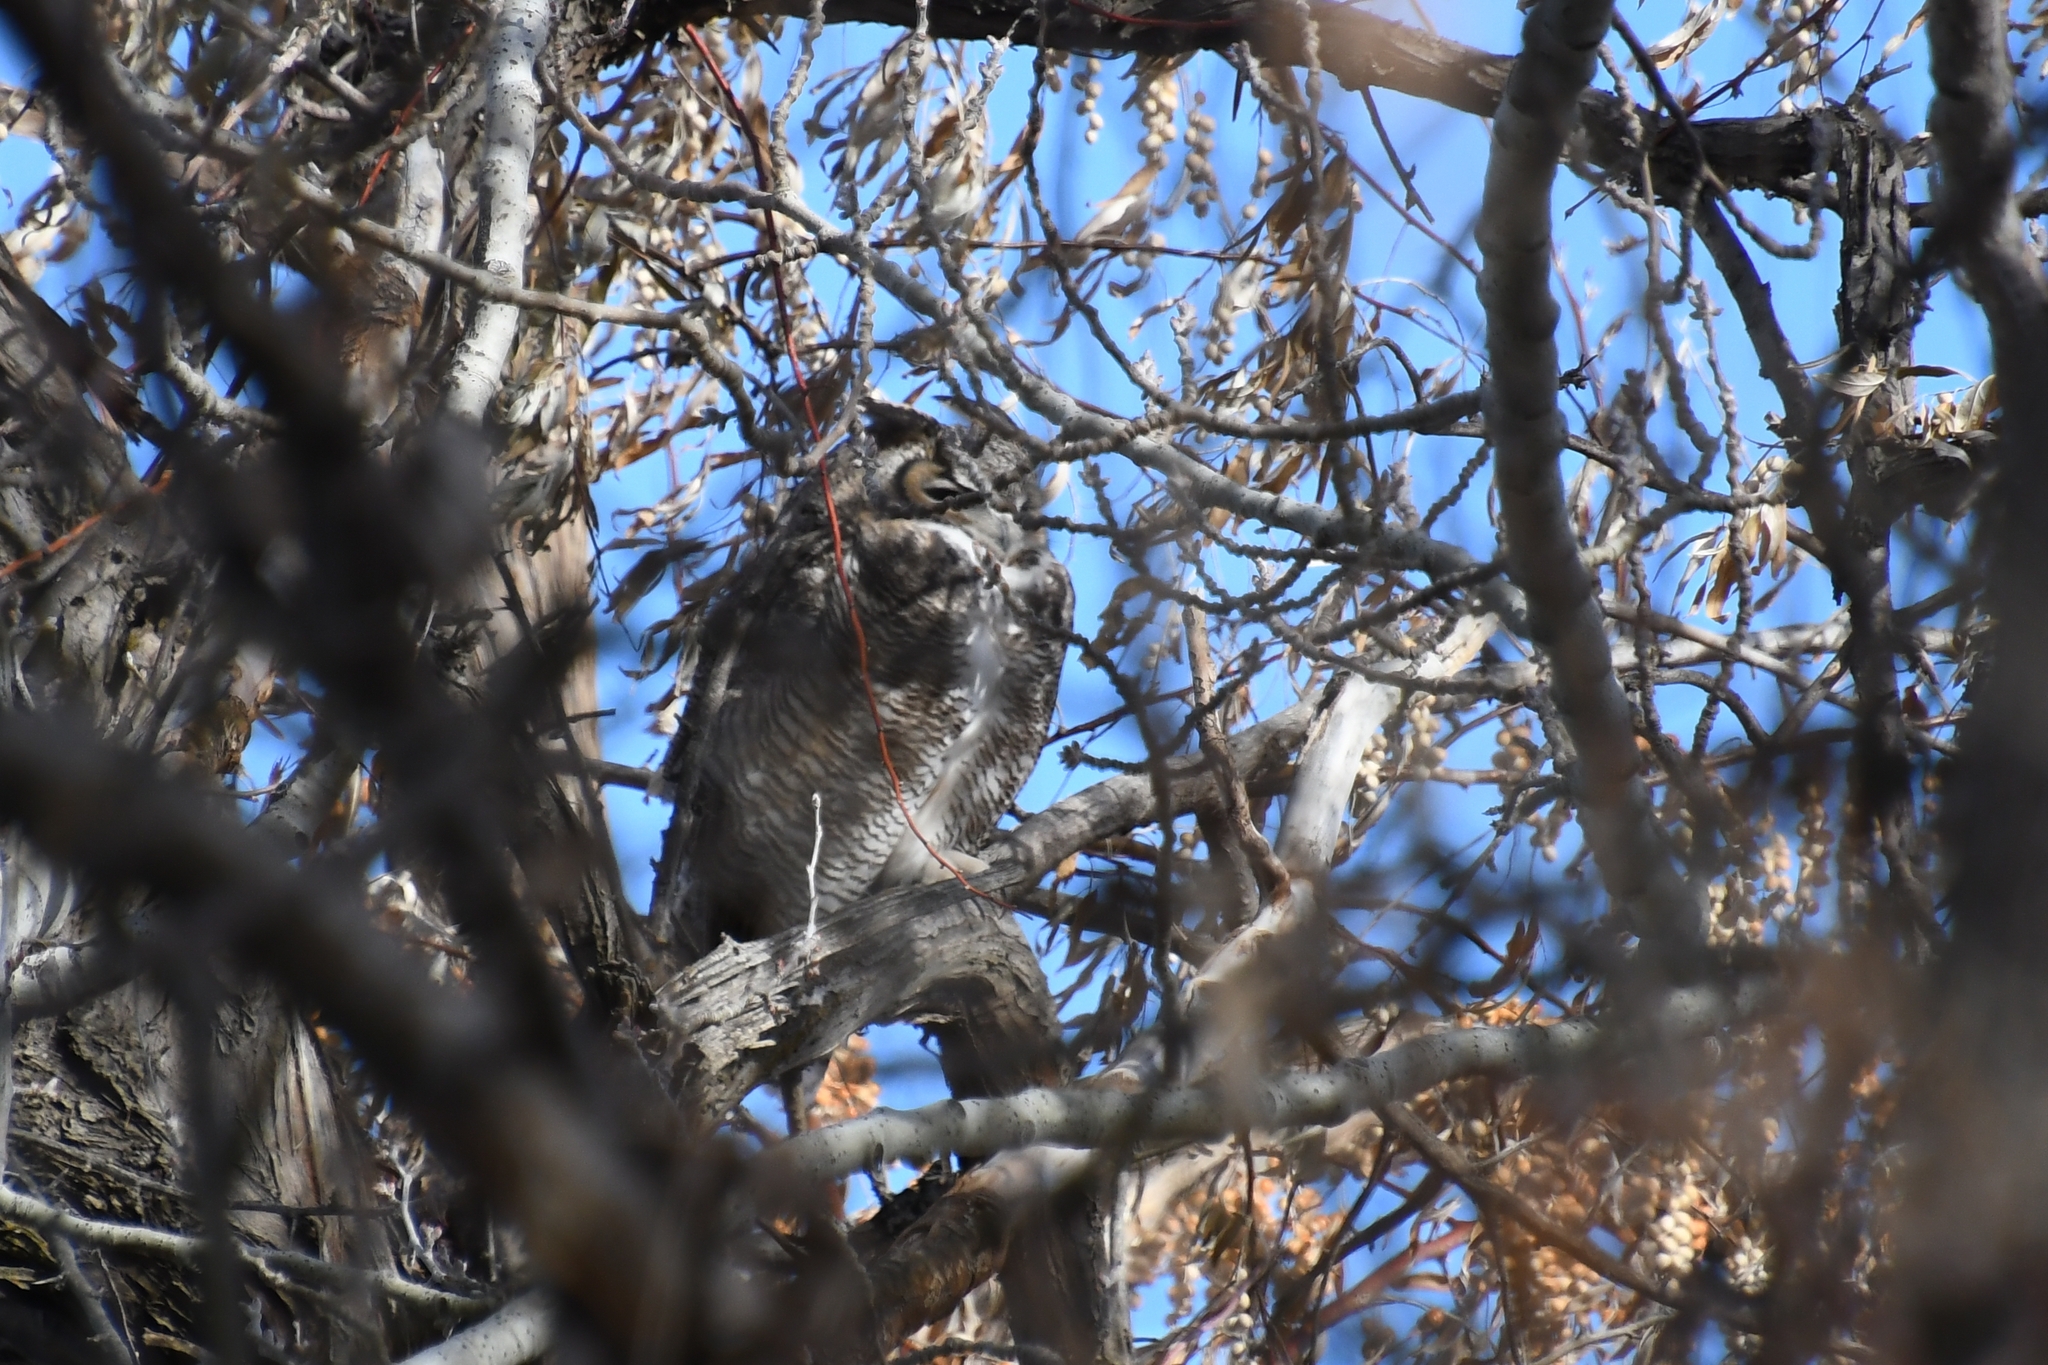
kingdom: Animalia
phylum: Chordata
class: Aves
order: Strigiformes
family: Strigidae
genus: Bubo
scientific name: Bubo virginianus
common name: Great horned owl
